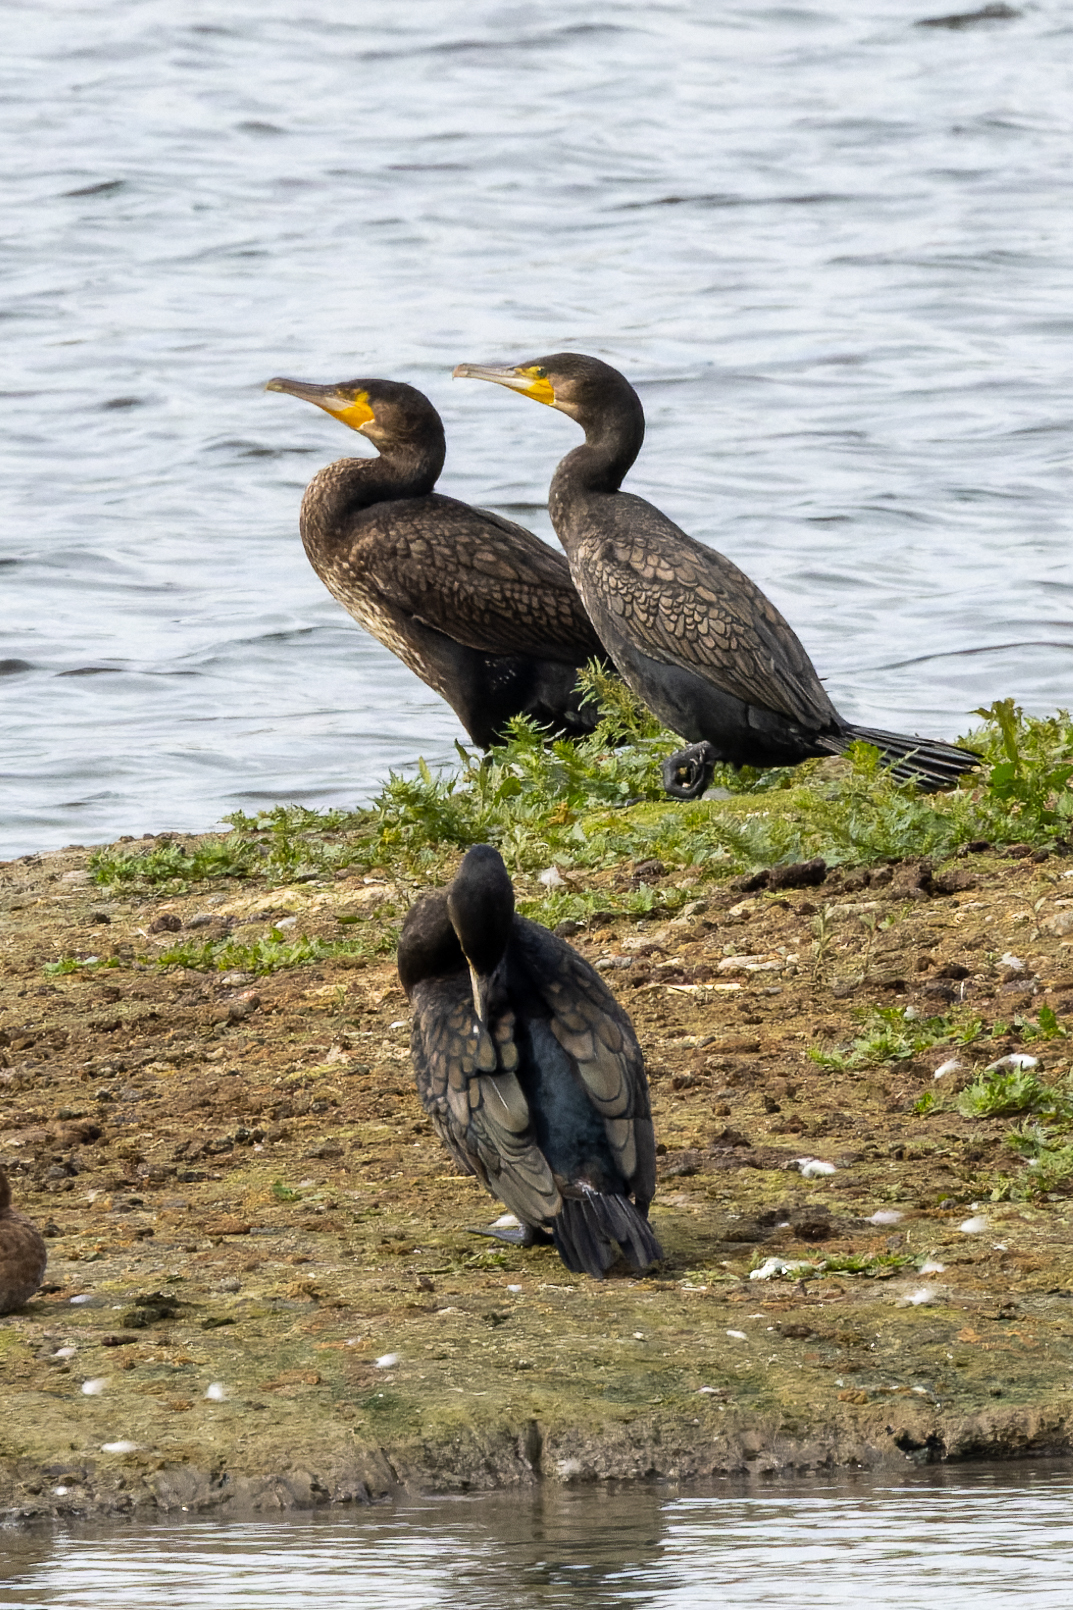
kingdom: Animalia
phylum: Chordata
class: Aves
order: Suliformes
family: Phalacrocoracidae
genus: Phalacrocorax
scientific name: Phalacrocorax carbo
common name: Great cormorant
